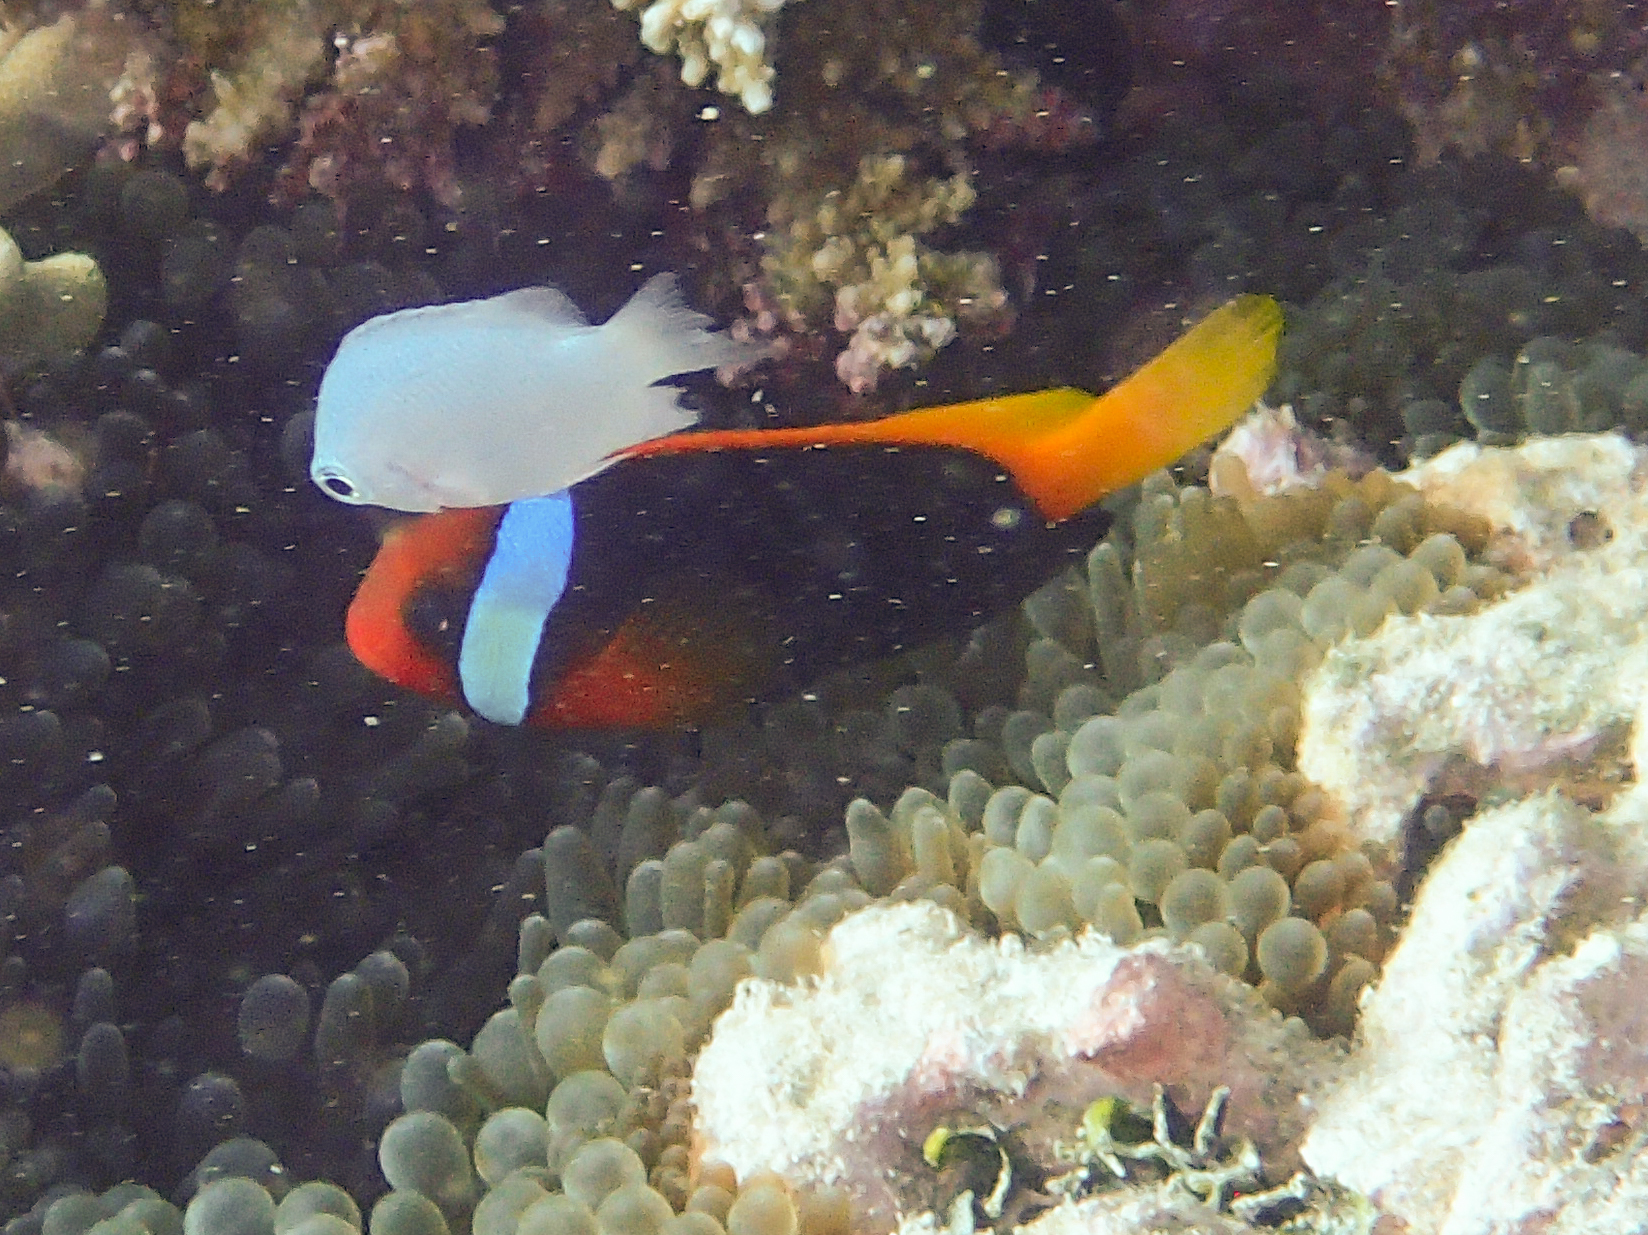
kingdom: Animalia
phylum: Chordata
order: Perciformes
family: Pomacentridae
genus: Amphiprion
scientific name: Amphiprion melanopus
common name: Black anemonefish
